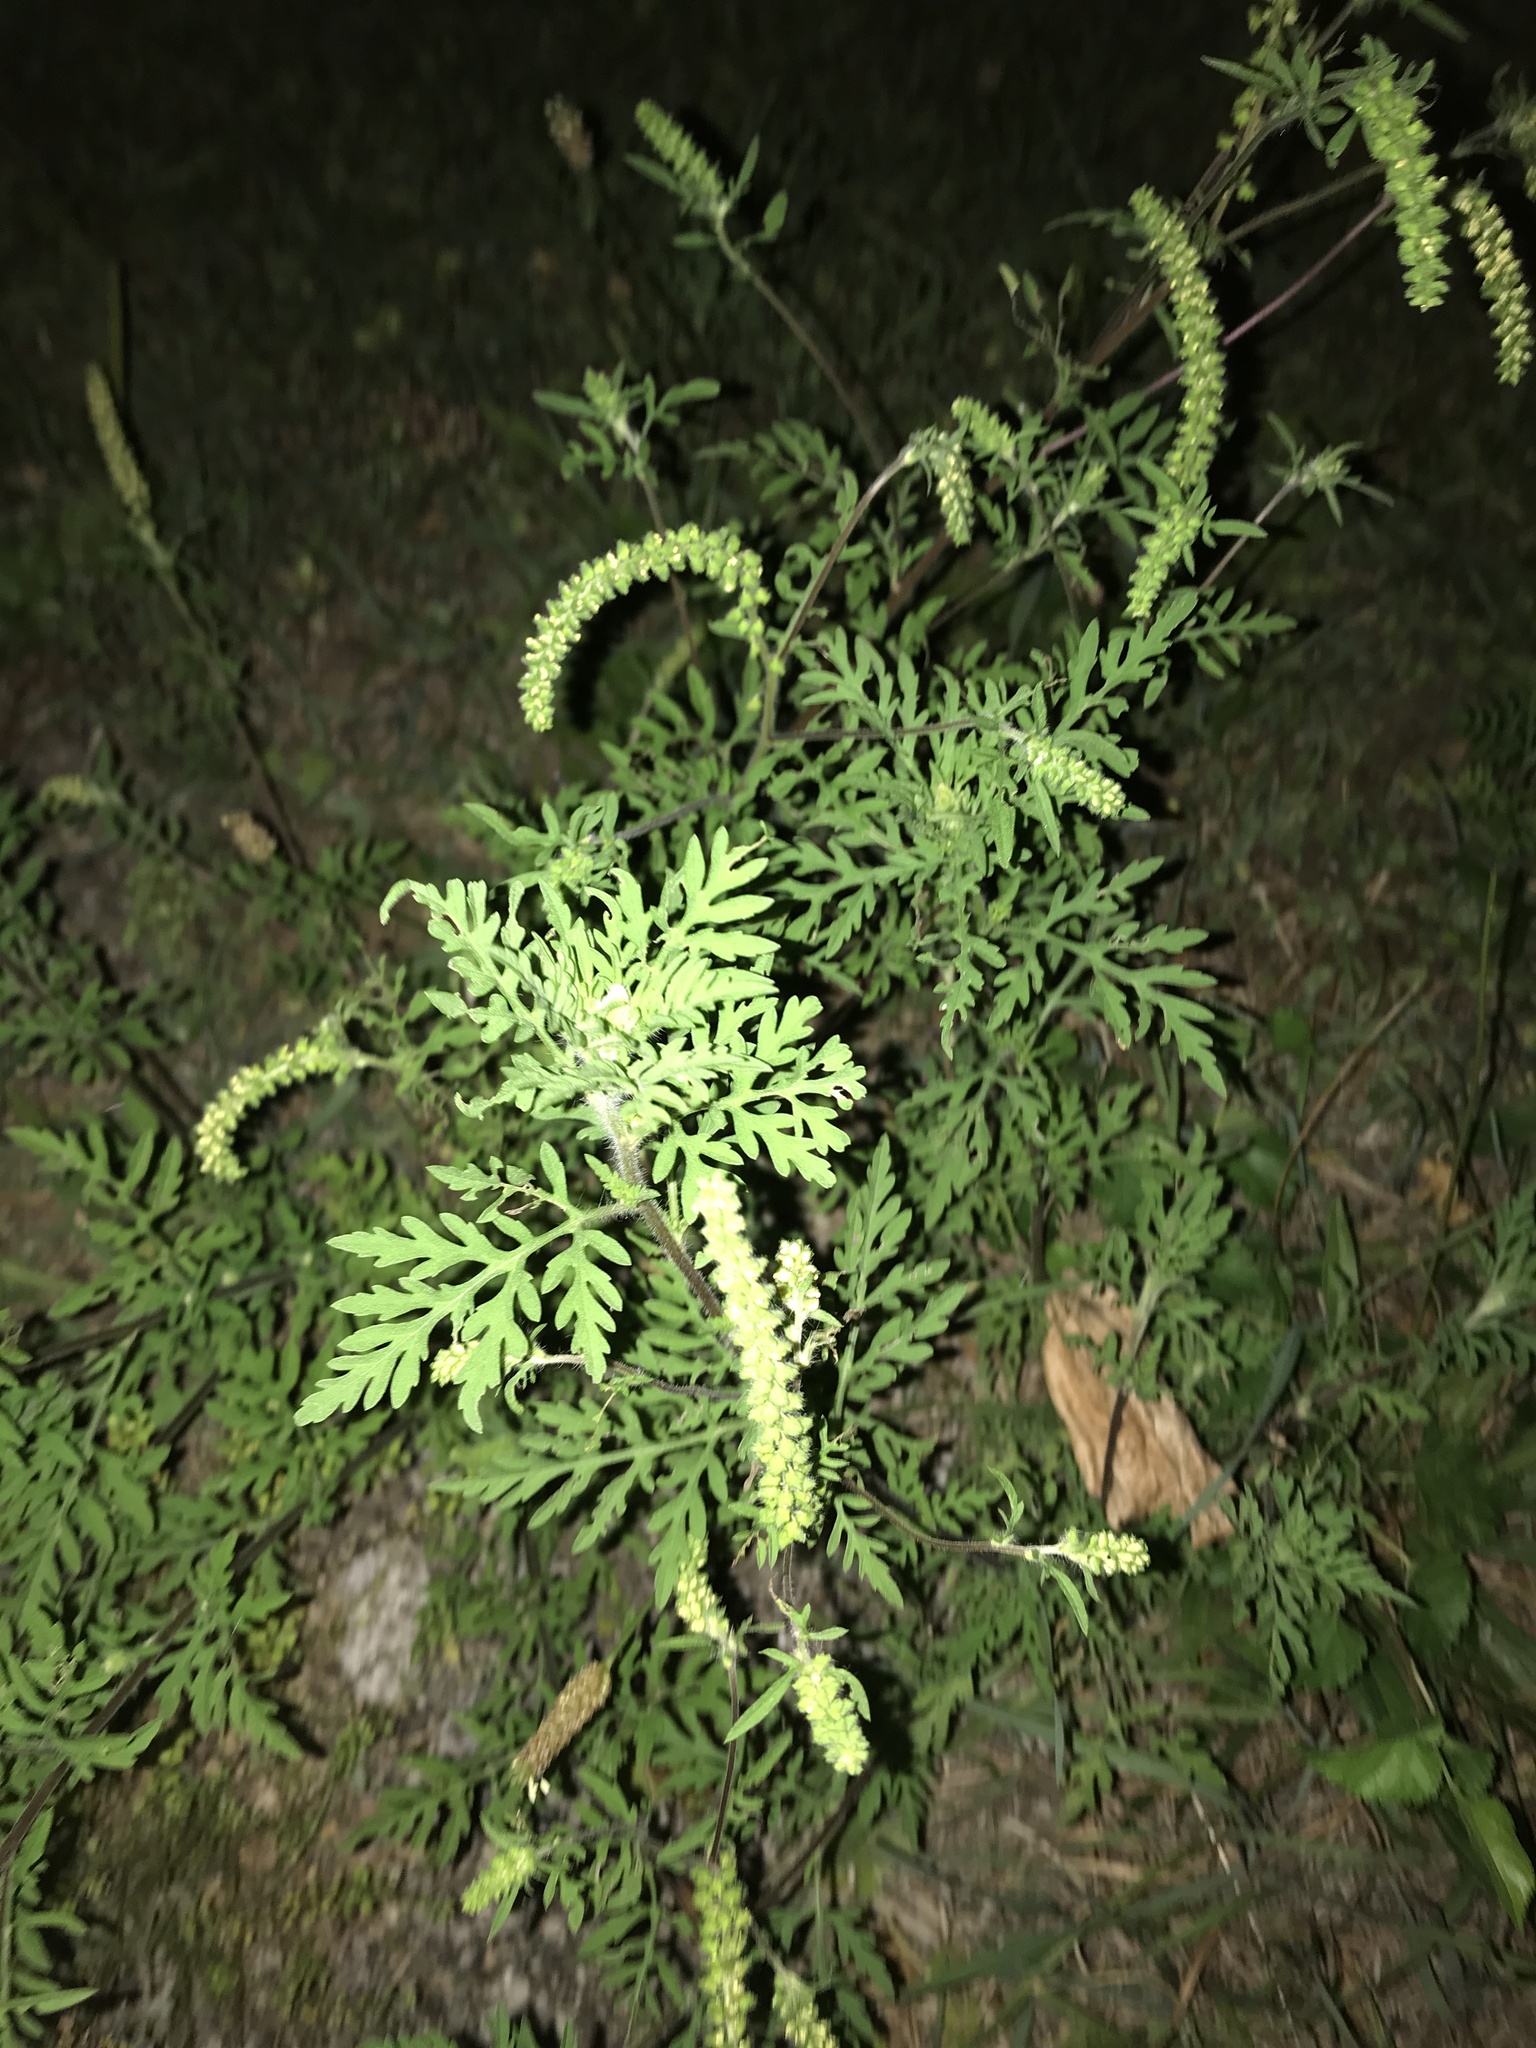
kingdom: Plantae
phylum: Tracheophyta
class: Magnoliopsida
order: Asterales
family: Asteraceae
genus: Ambrosia
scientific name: Ambrosia artemisiifolia
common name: Annual ragweed
